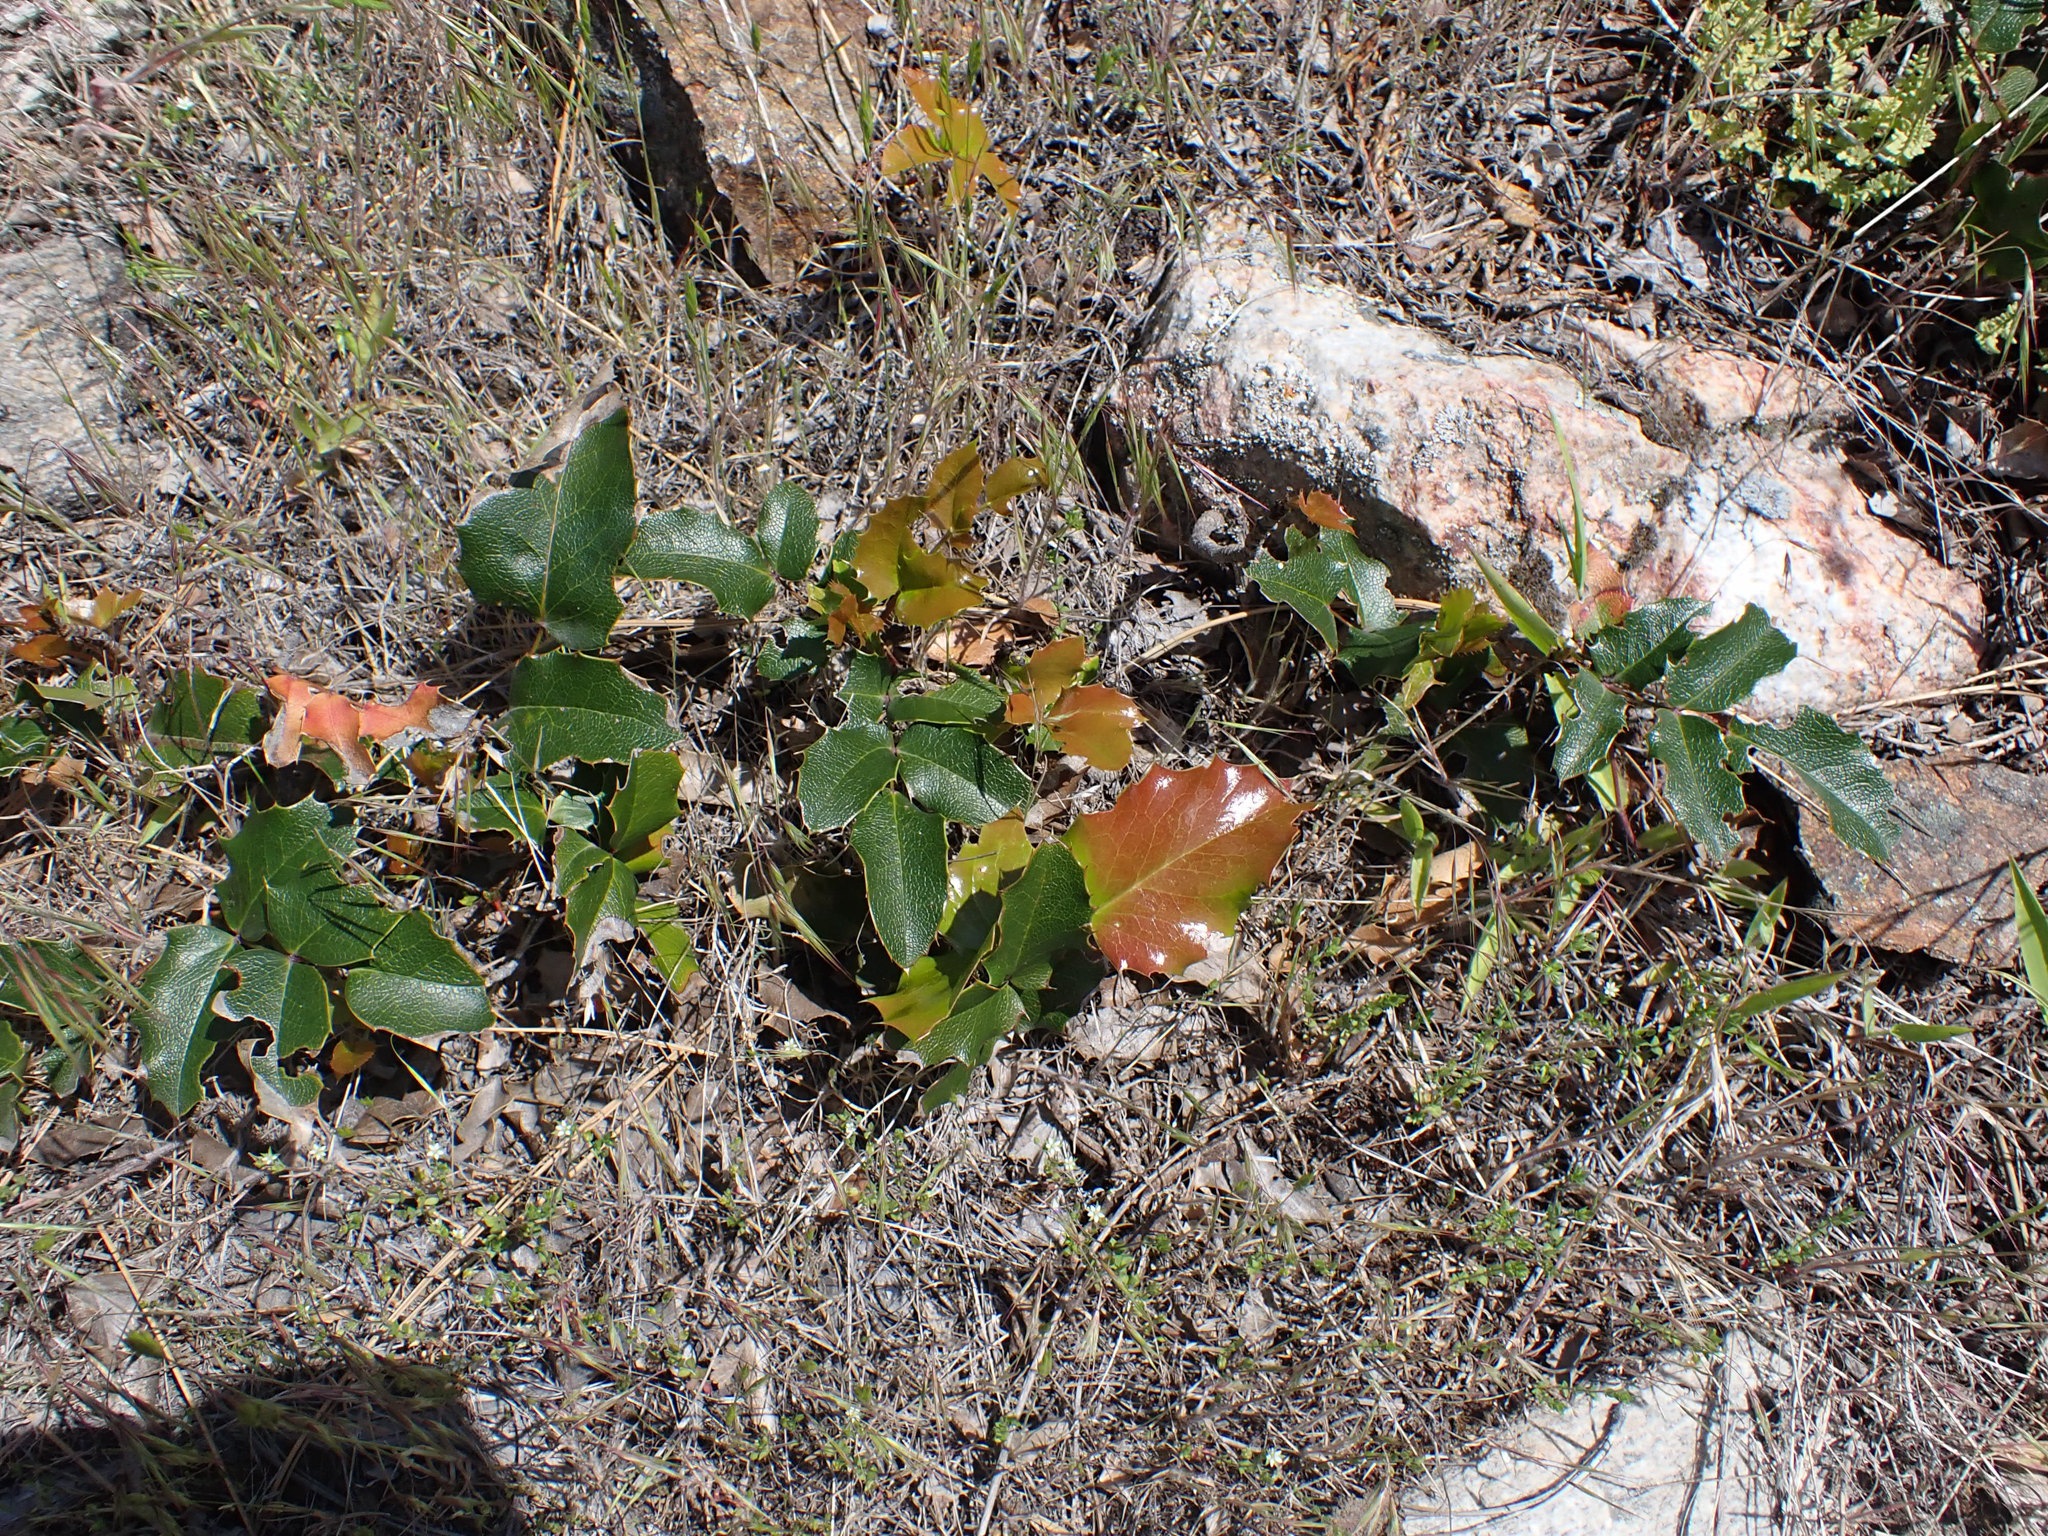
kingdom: Plantae
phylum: Tracheophyta
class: Magnoliopsida
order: Ranunculales
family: Berberidaceae
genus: Mahonia
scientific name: Mahonia aquifolium
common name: Oregon-grape
